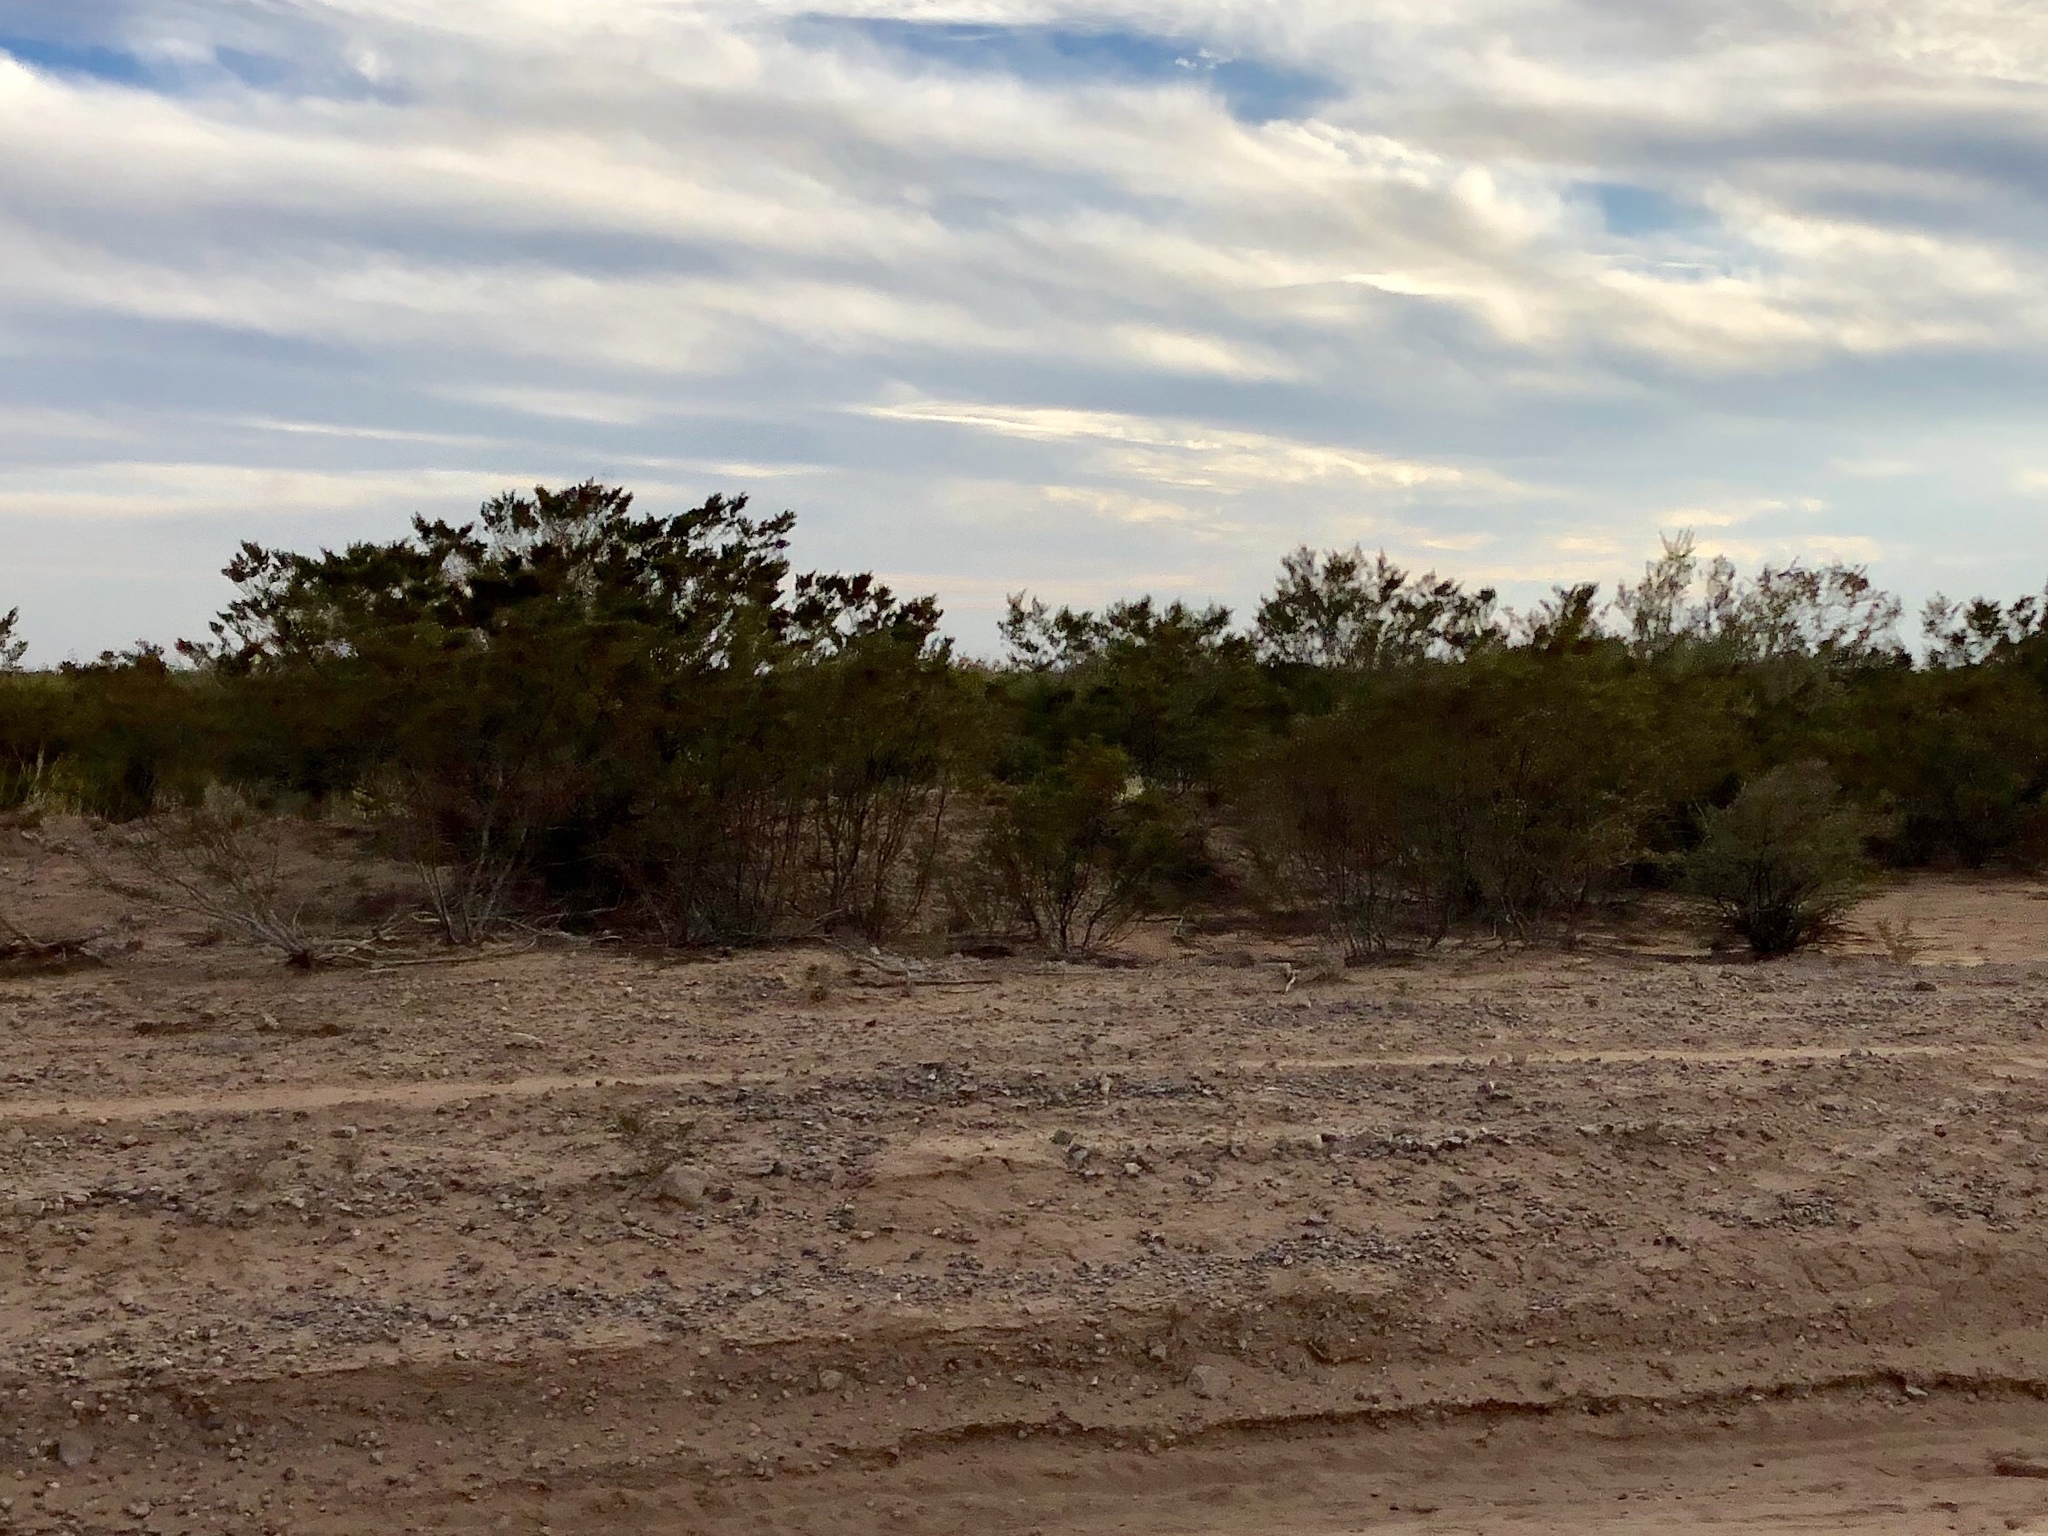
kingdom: Plantae
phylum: Tracheophyta
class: Magnoliopsida
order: Zygophyllales
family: Zygophyllaceae
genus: Larrea
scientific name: Larrea tridentata
